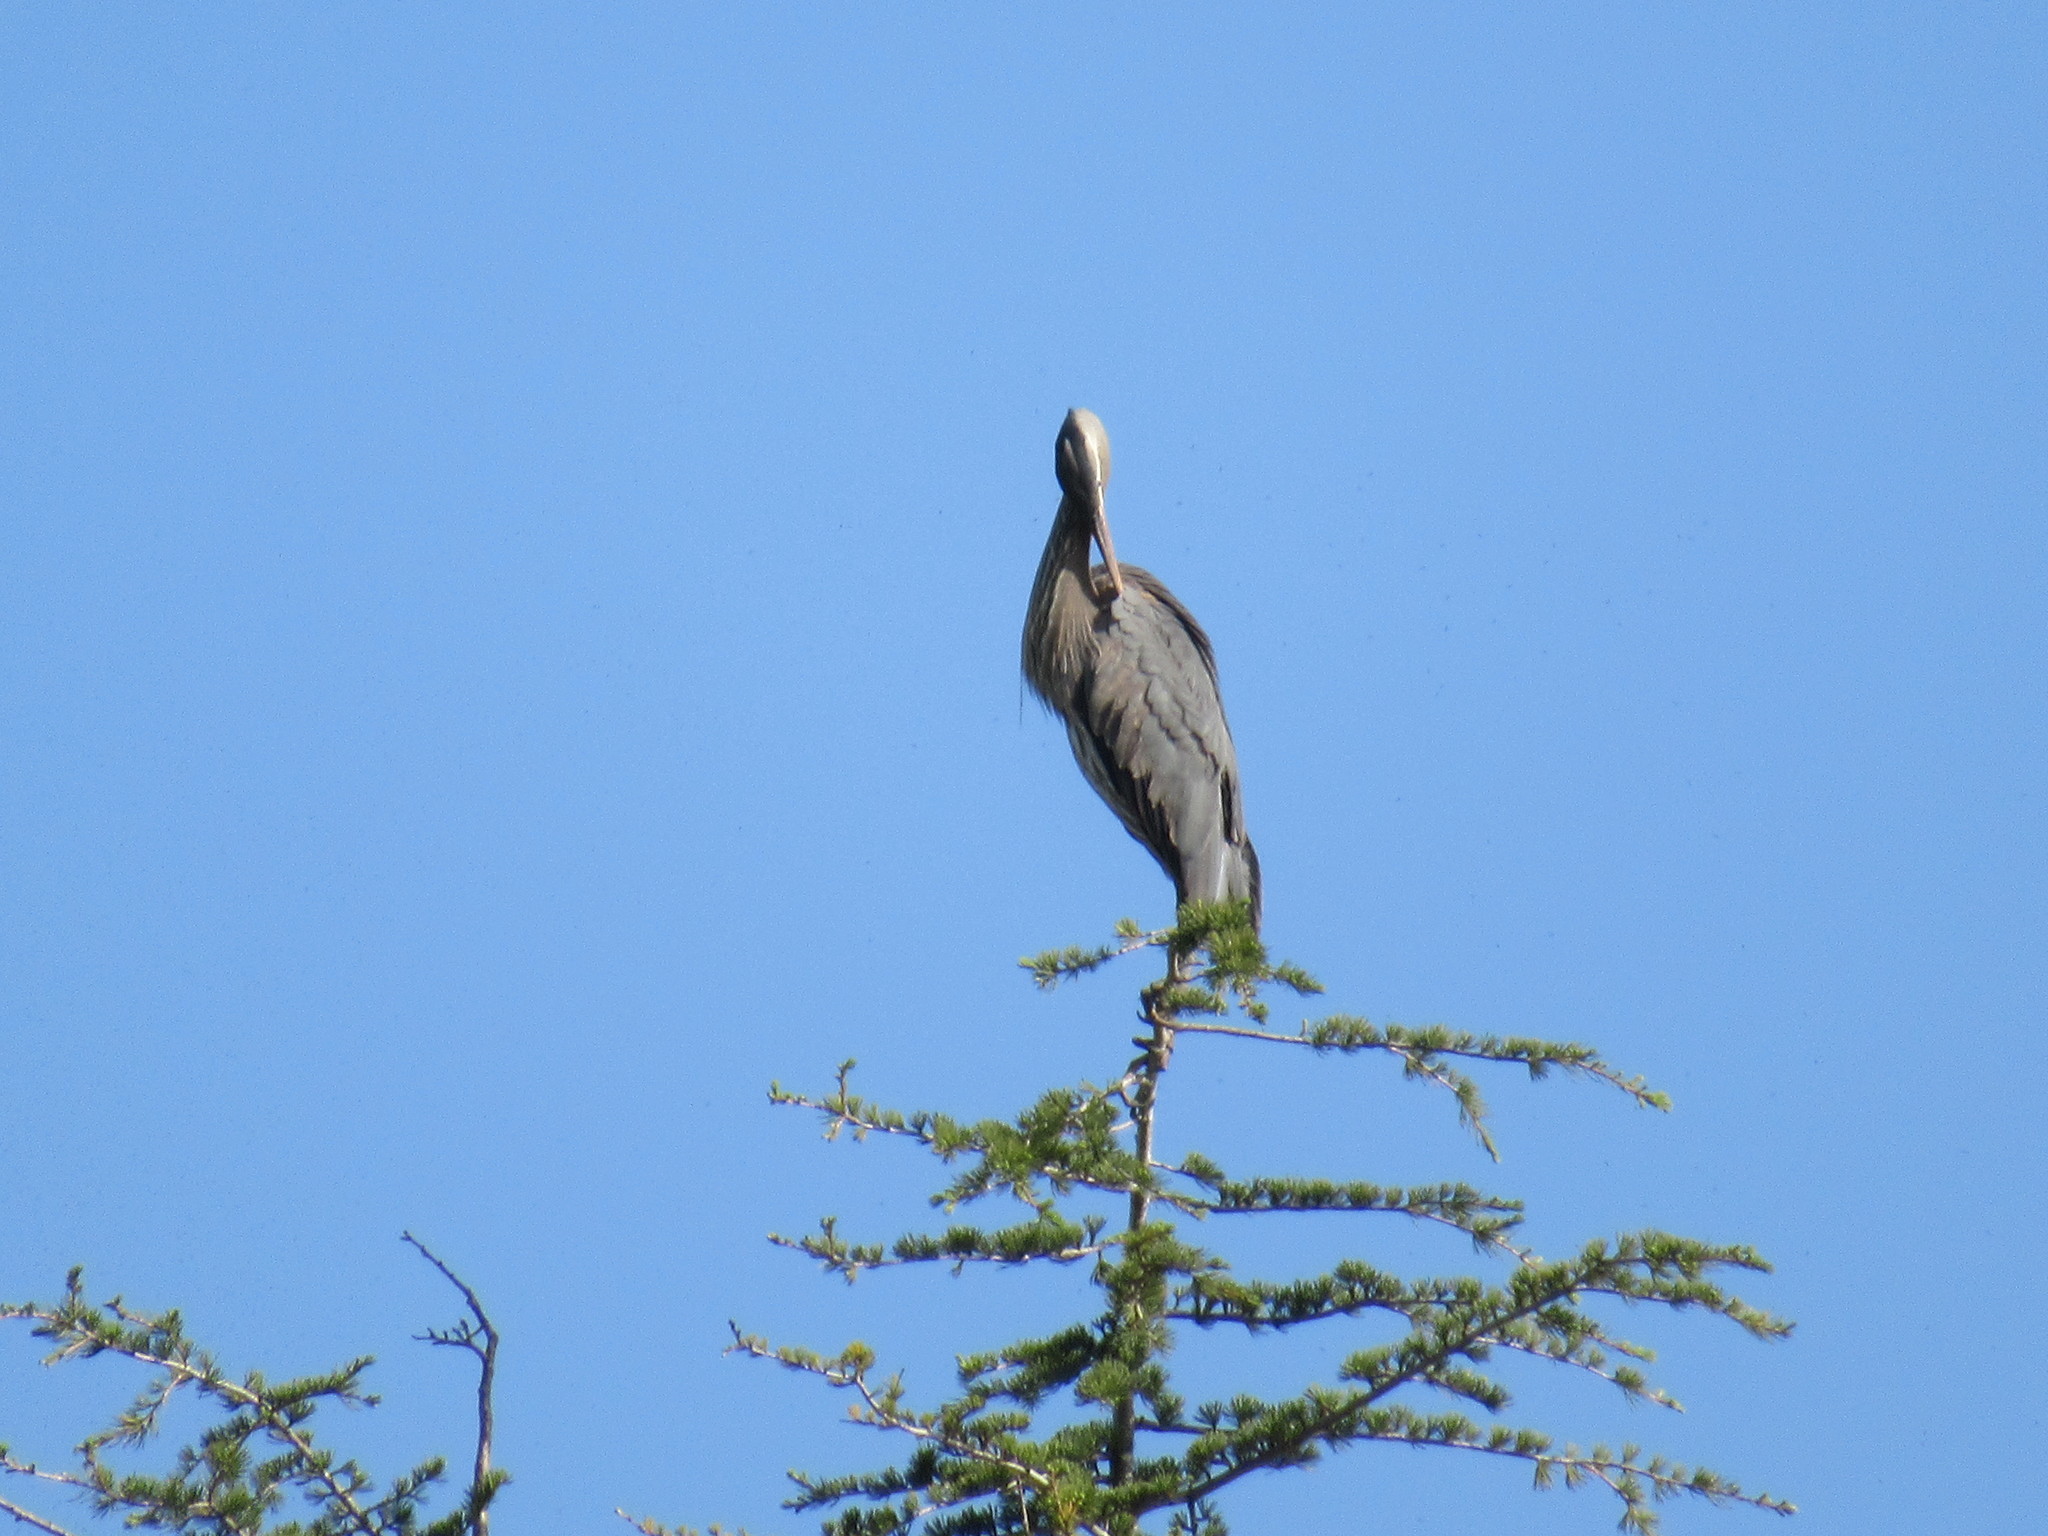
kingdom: Animalia
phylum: Chordata
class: Aves
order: Pelecaniformes
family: Ardeidae
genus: Ardea
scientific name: Ardea herodias
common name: Great blue heron
